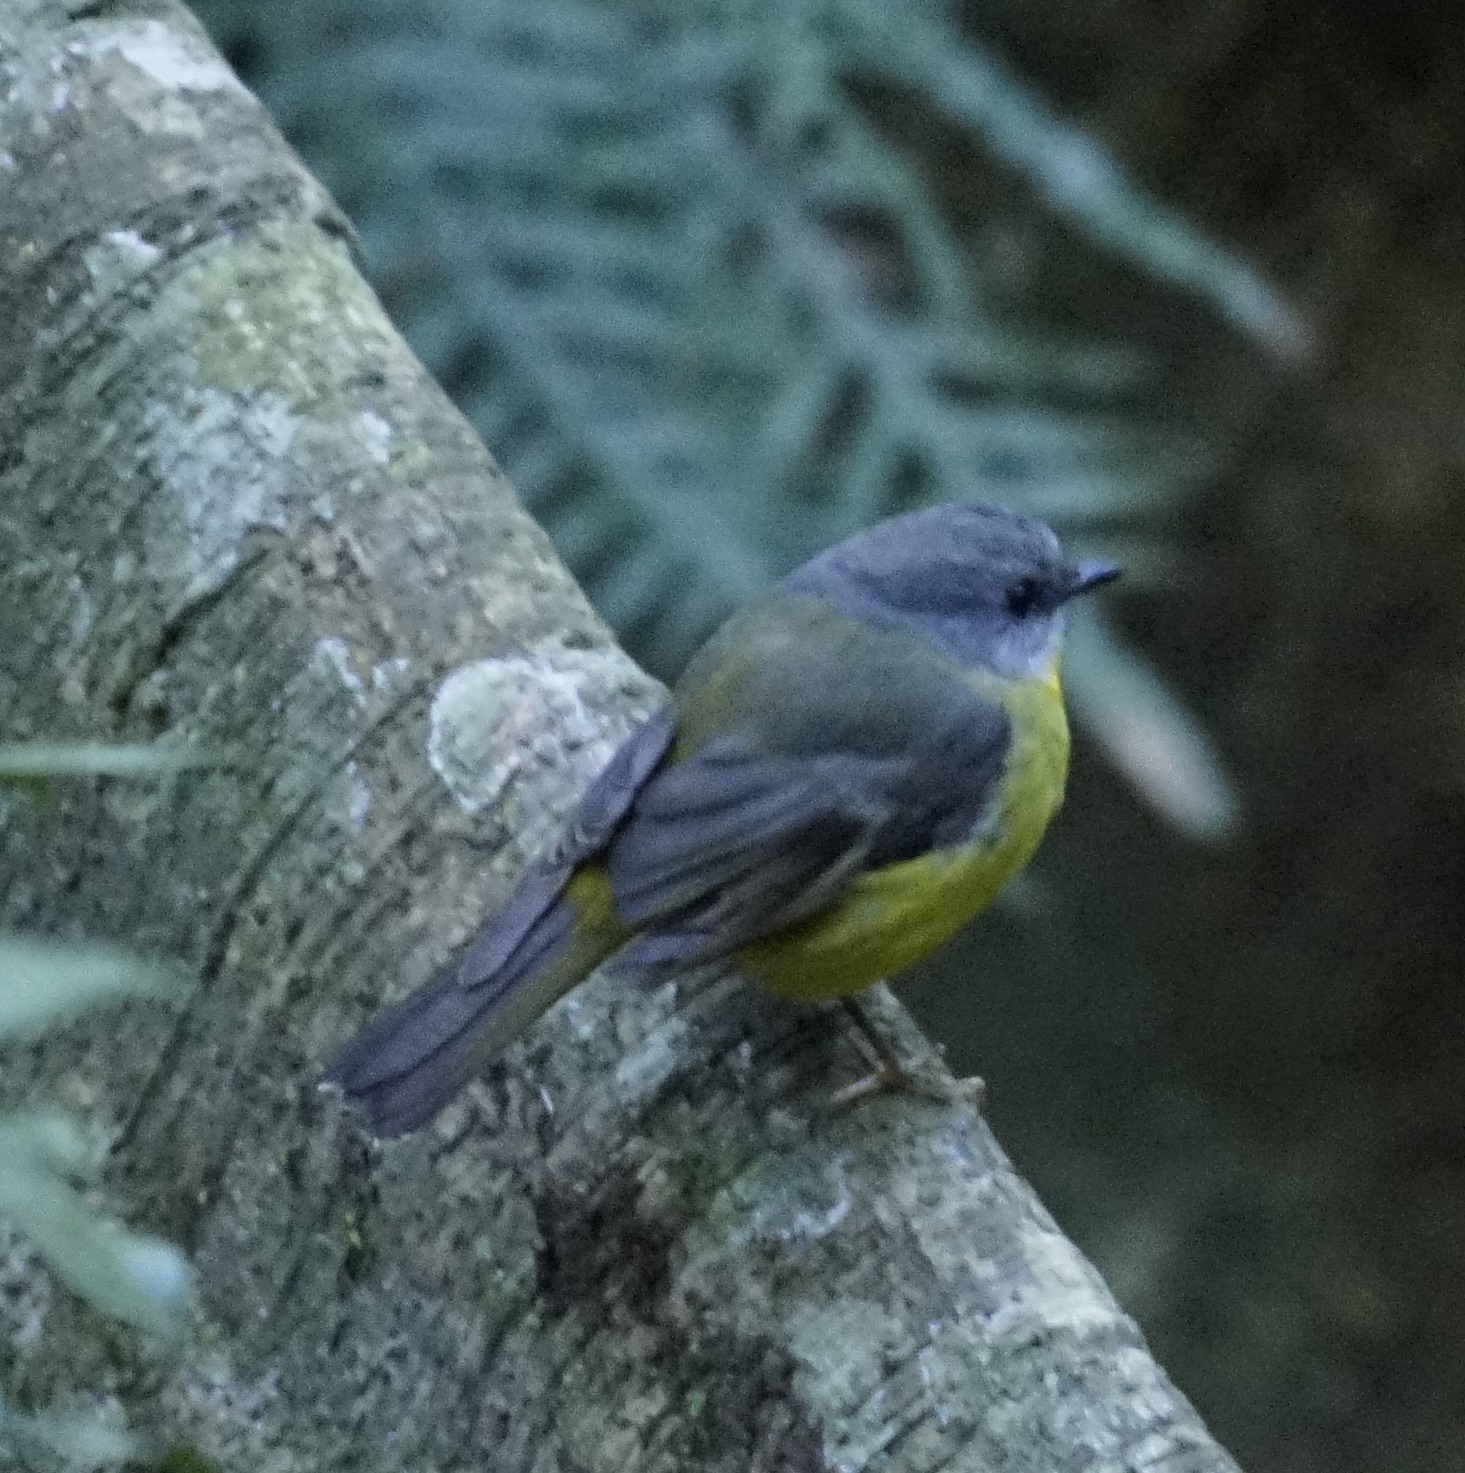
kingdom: Animalia
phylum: Chordata
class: Aves
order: Passeriformes
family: Petroicidae
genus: Eopsaltria
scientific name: Eopsaltria australis
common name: Eastern yellow robin
